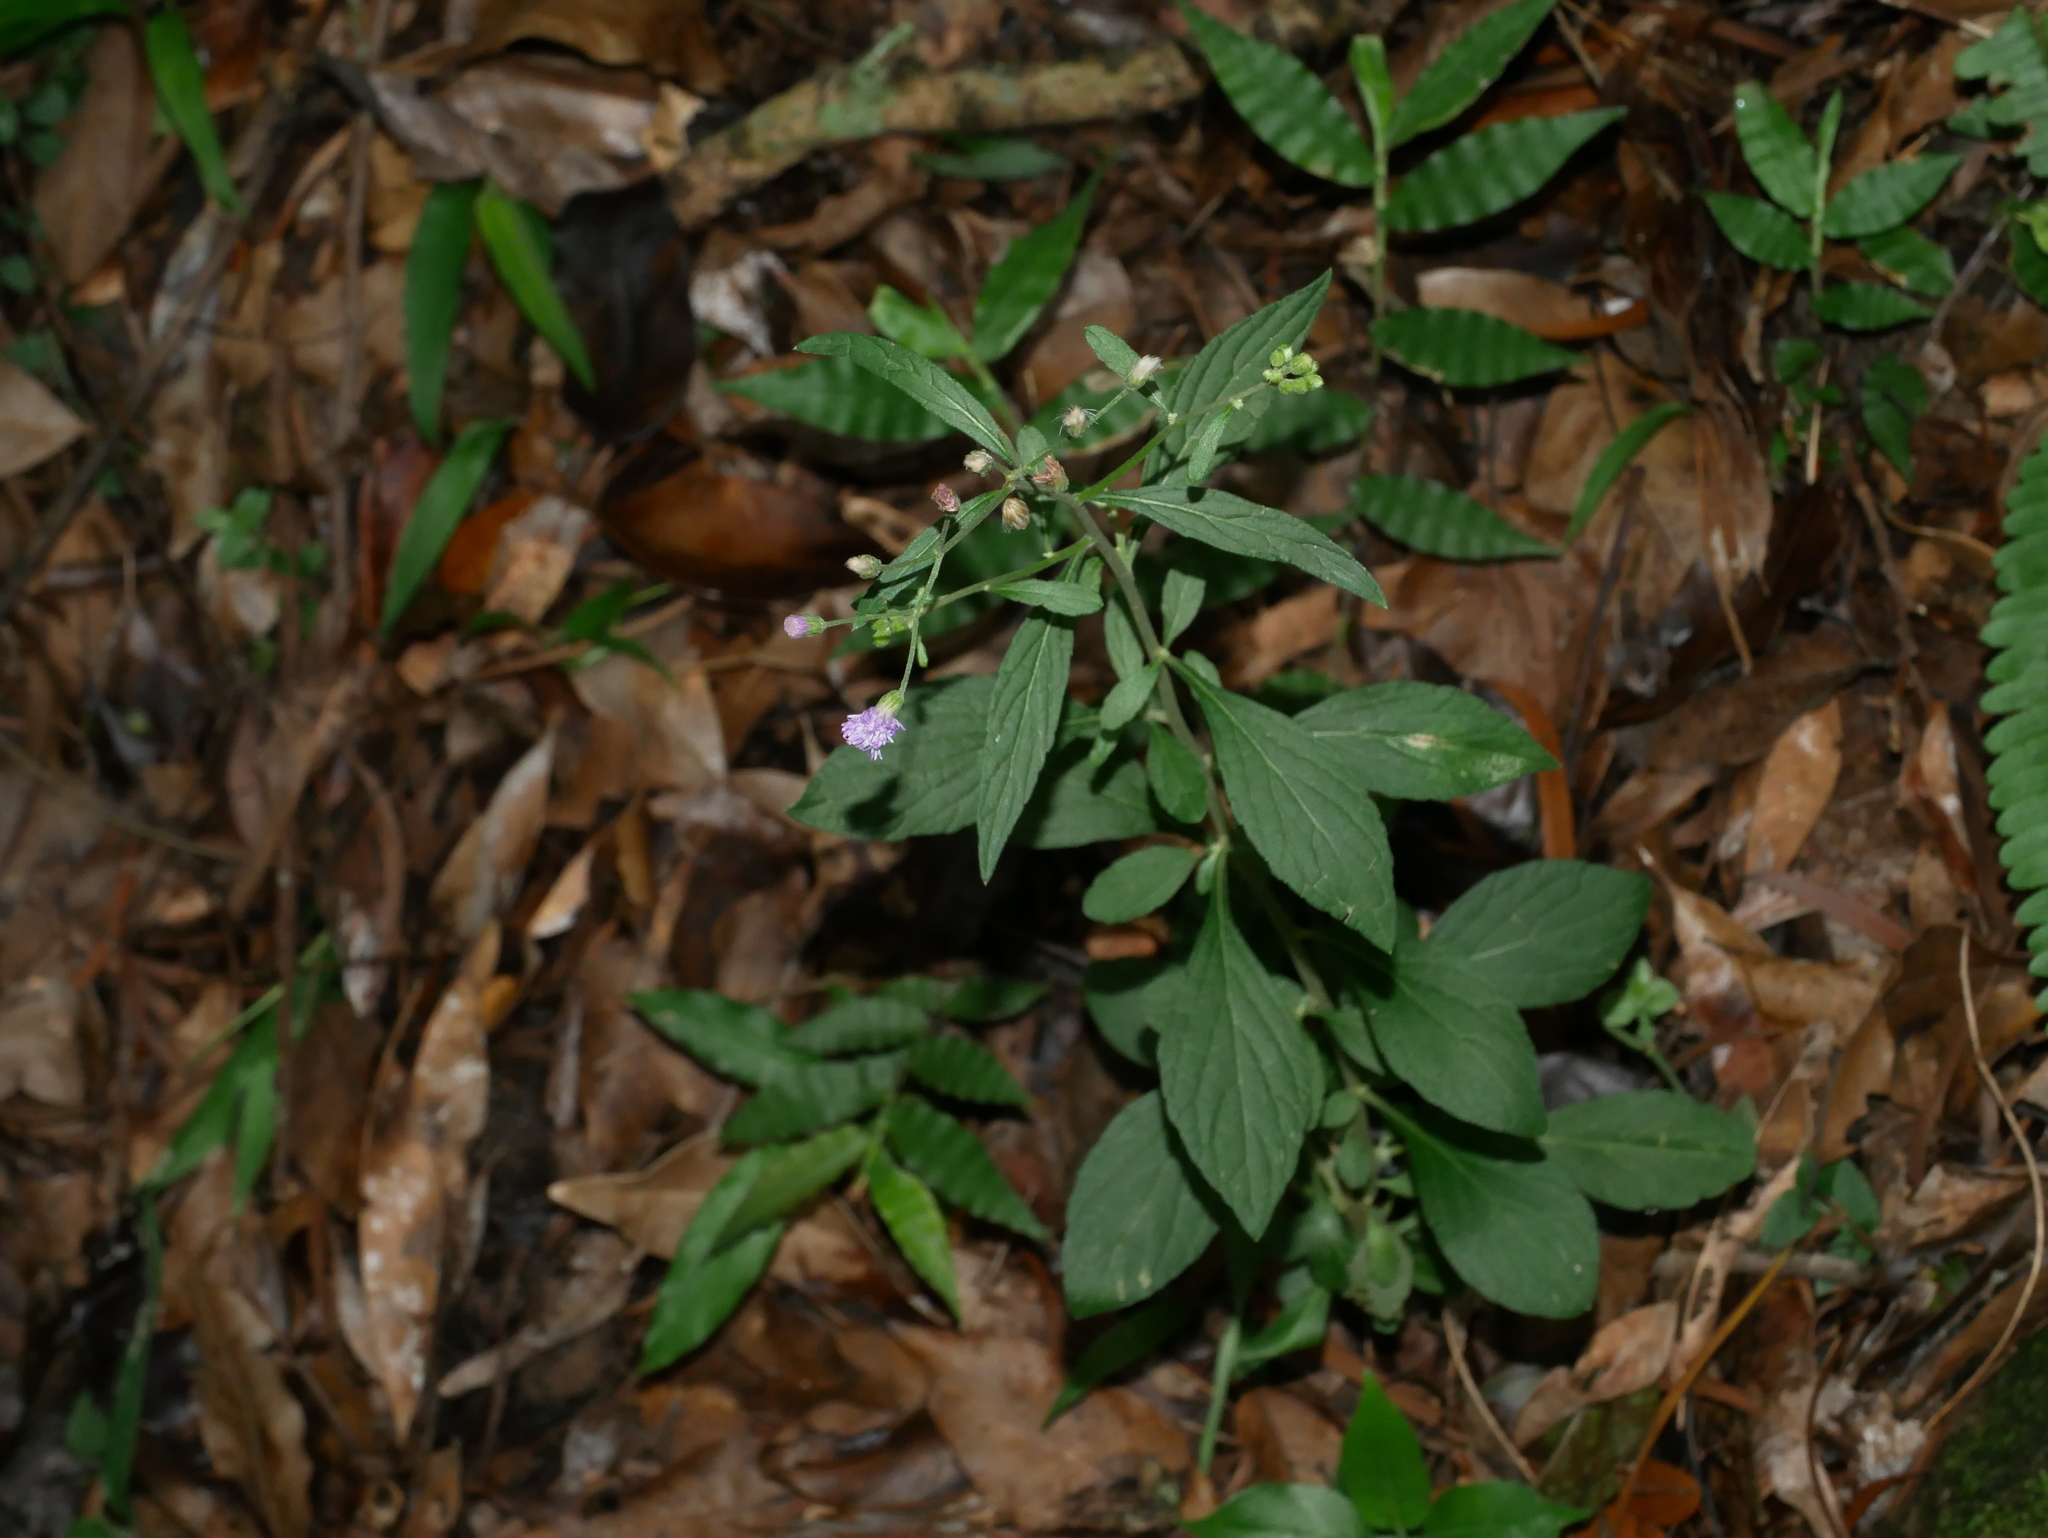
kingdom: Plantae
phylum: Tracheophyta
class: Magnoliopsida
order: Asterales
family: Asteraceae
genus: Cyanthillium
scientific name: Cyanthillium cinereum
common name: Little ironweed
